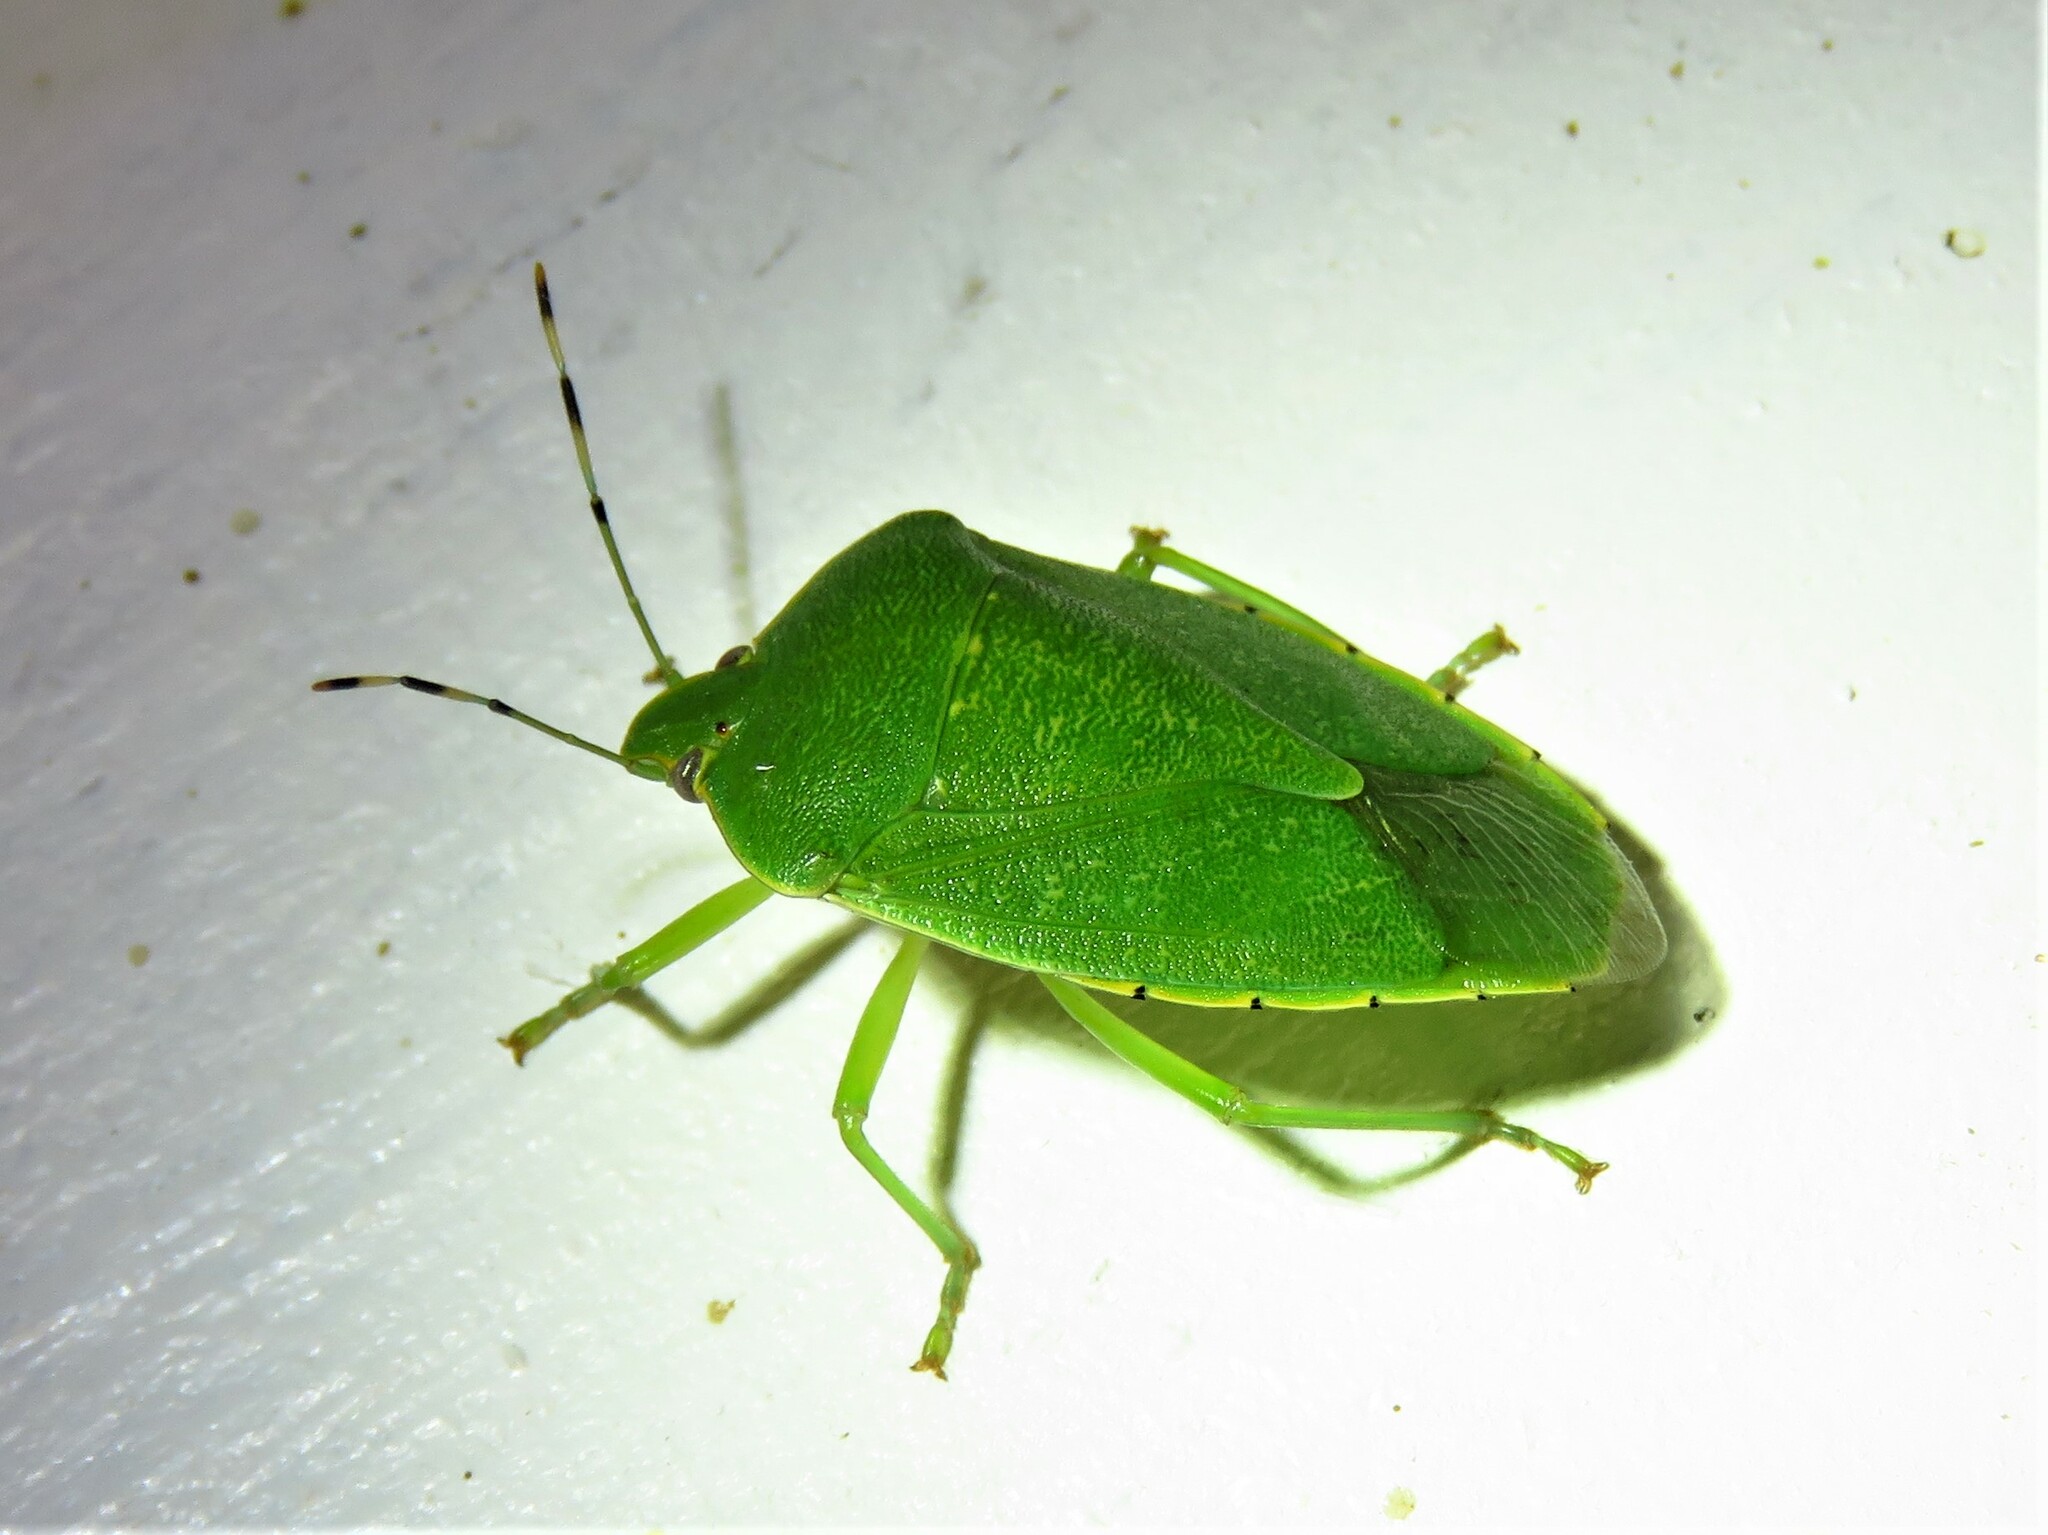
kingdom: Animalia
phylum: Arthropoda
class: Insecta
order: Hemiptera
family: Pentatomidae
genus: Chinavia
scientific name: Chinavia hilaris
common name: Green stink bug
